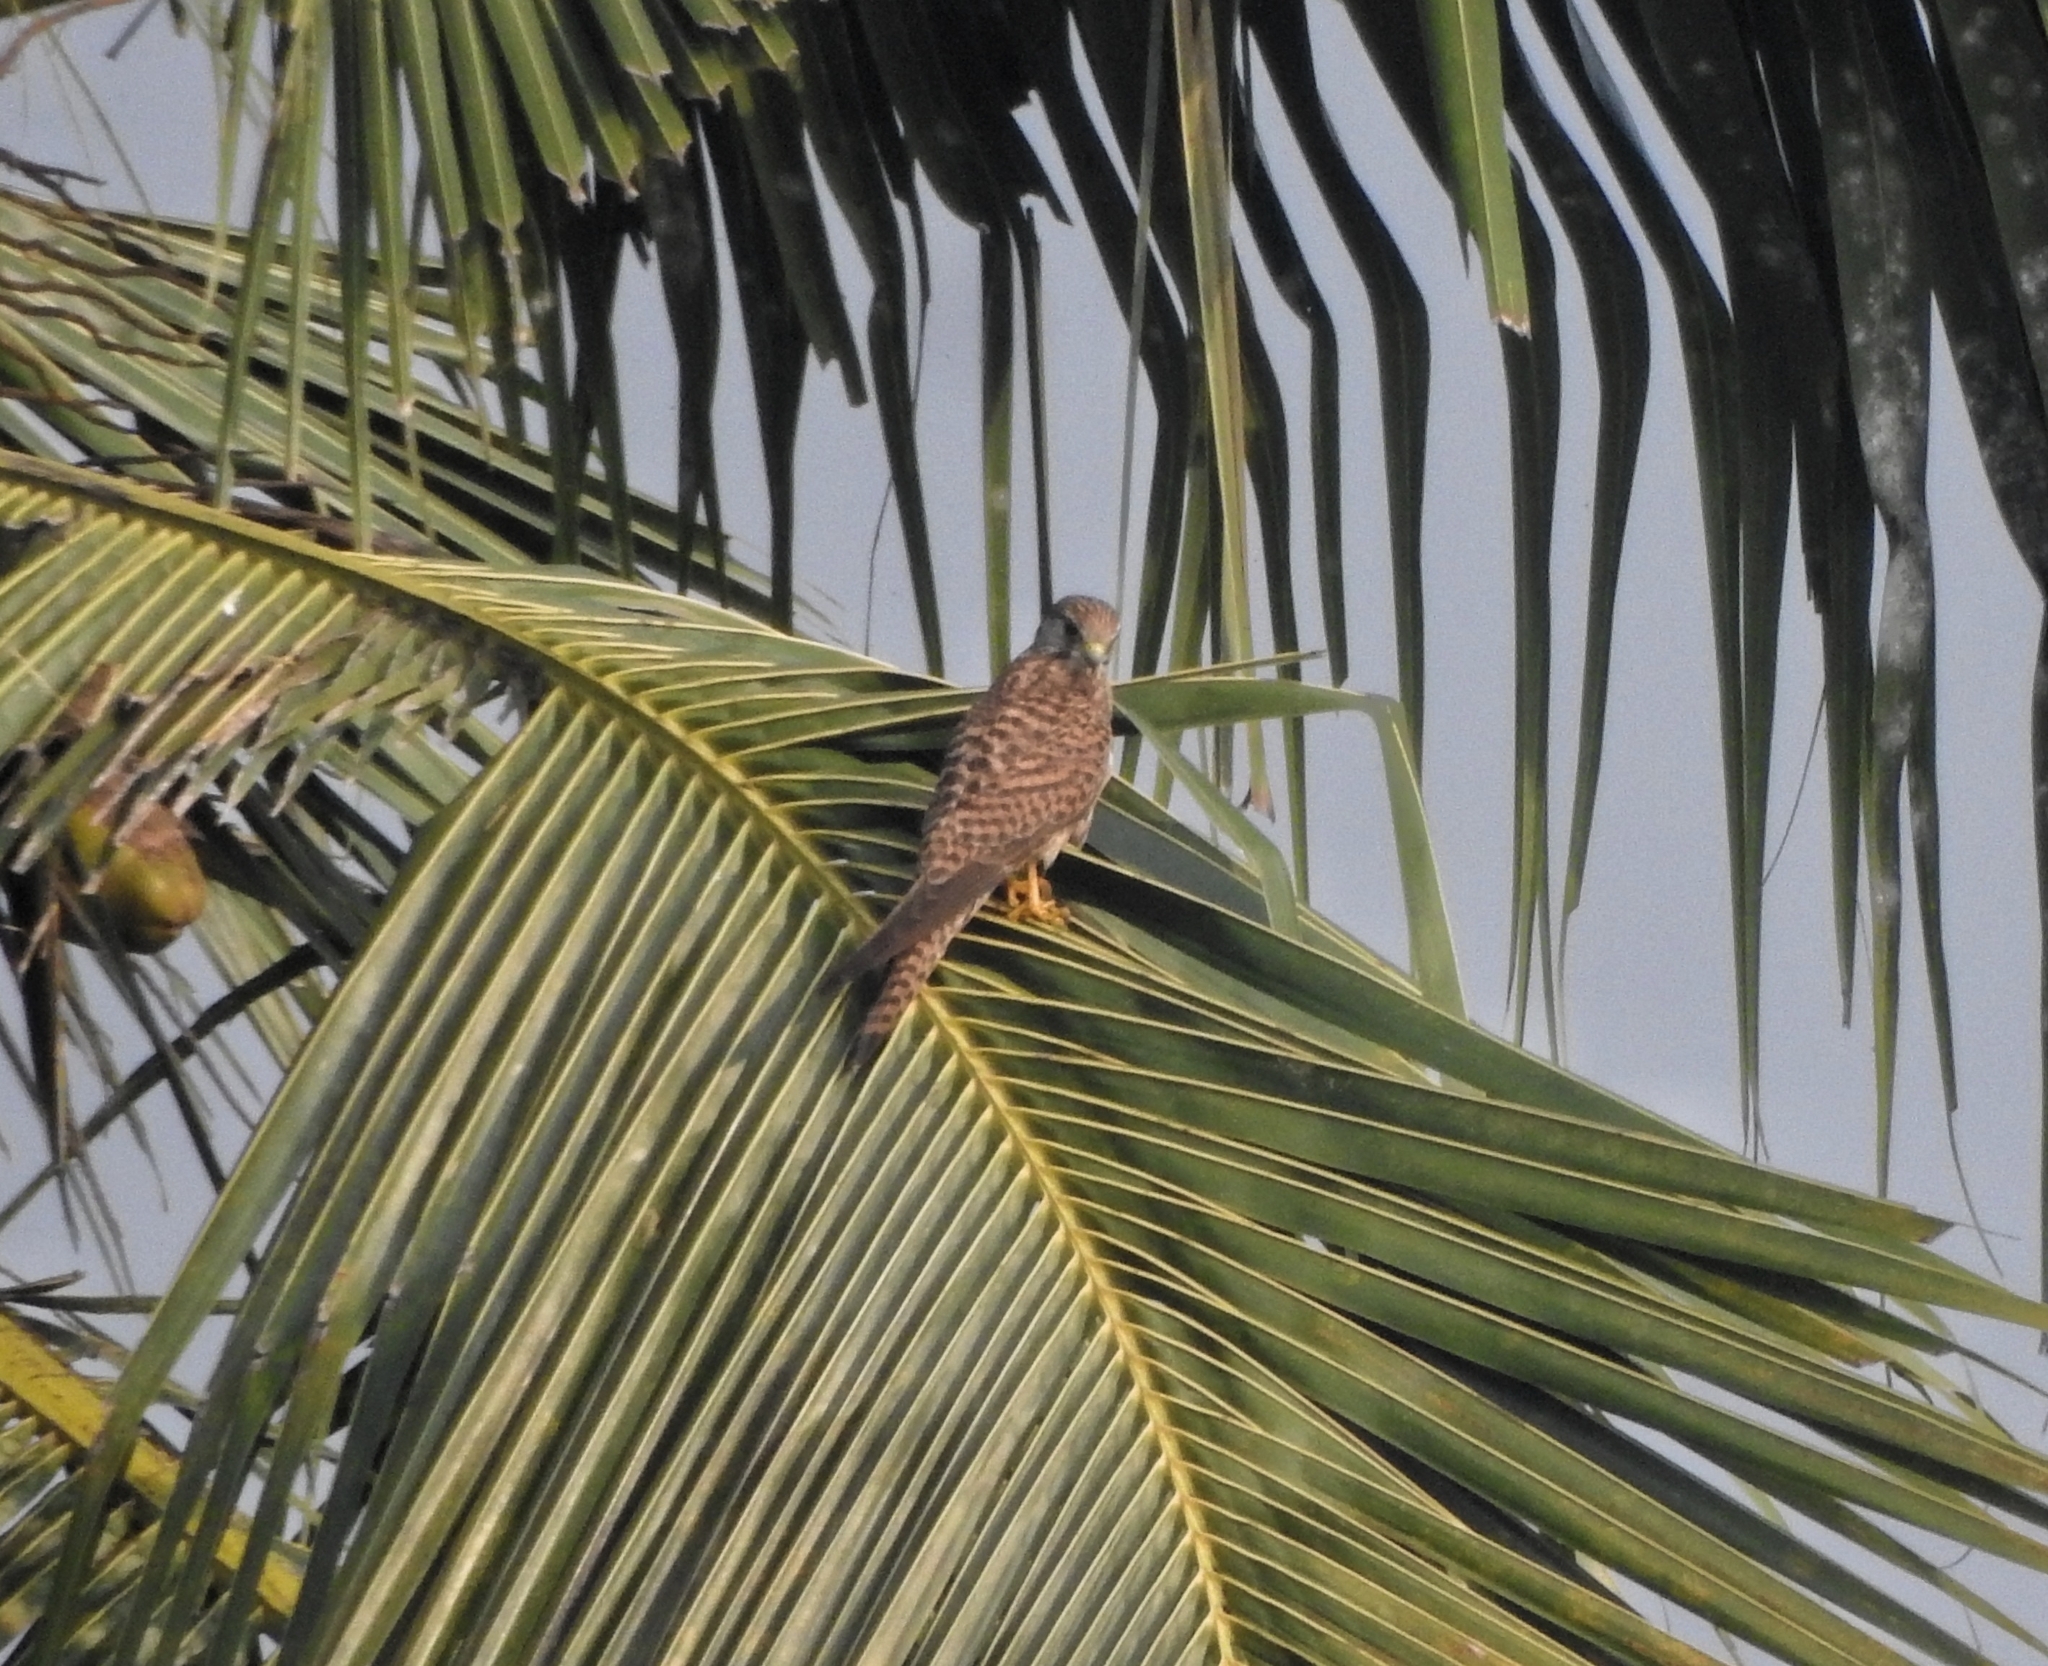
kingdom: Animalia
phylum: Chordata
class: Aves
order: Falconiformes
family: Falconidae
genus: Falco
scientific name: Falco tinnunculus
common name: Common kestrel
